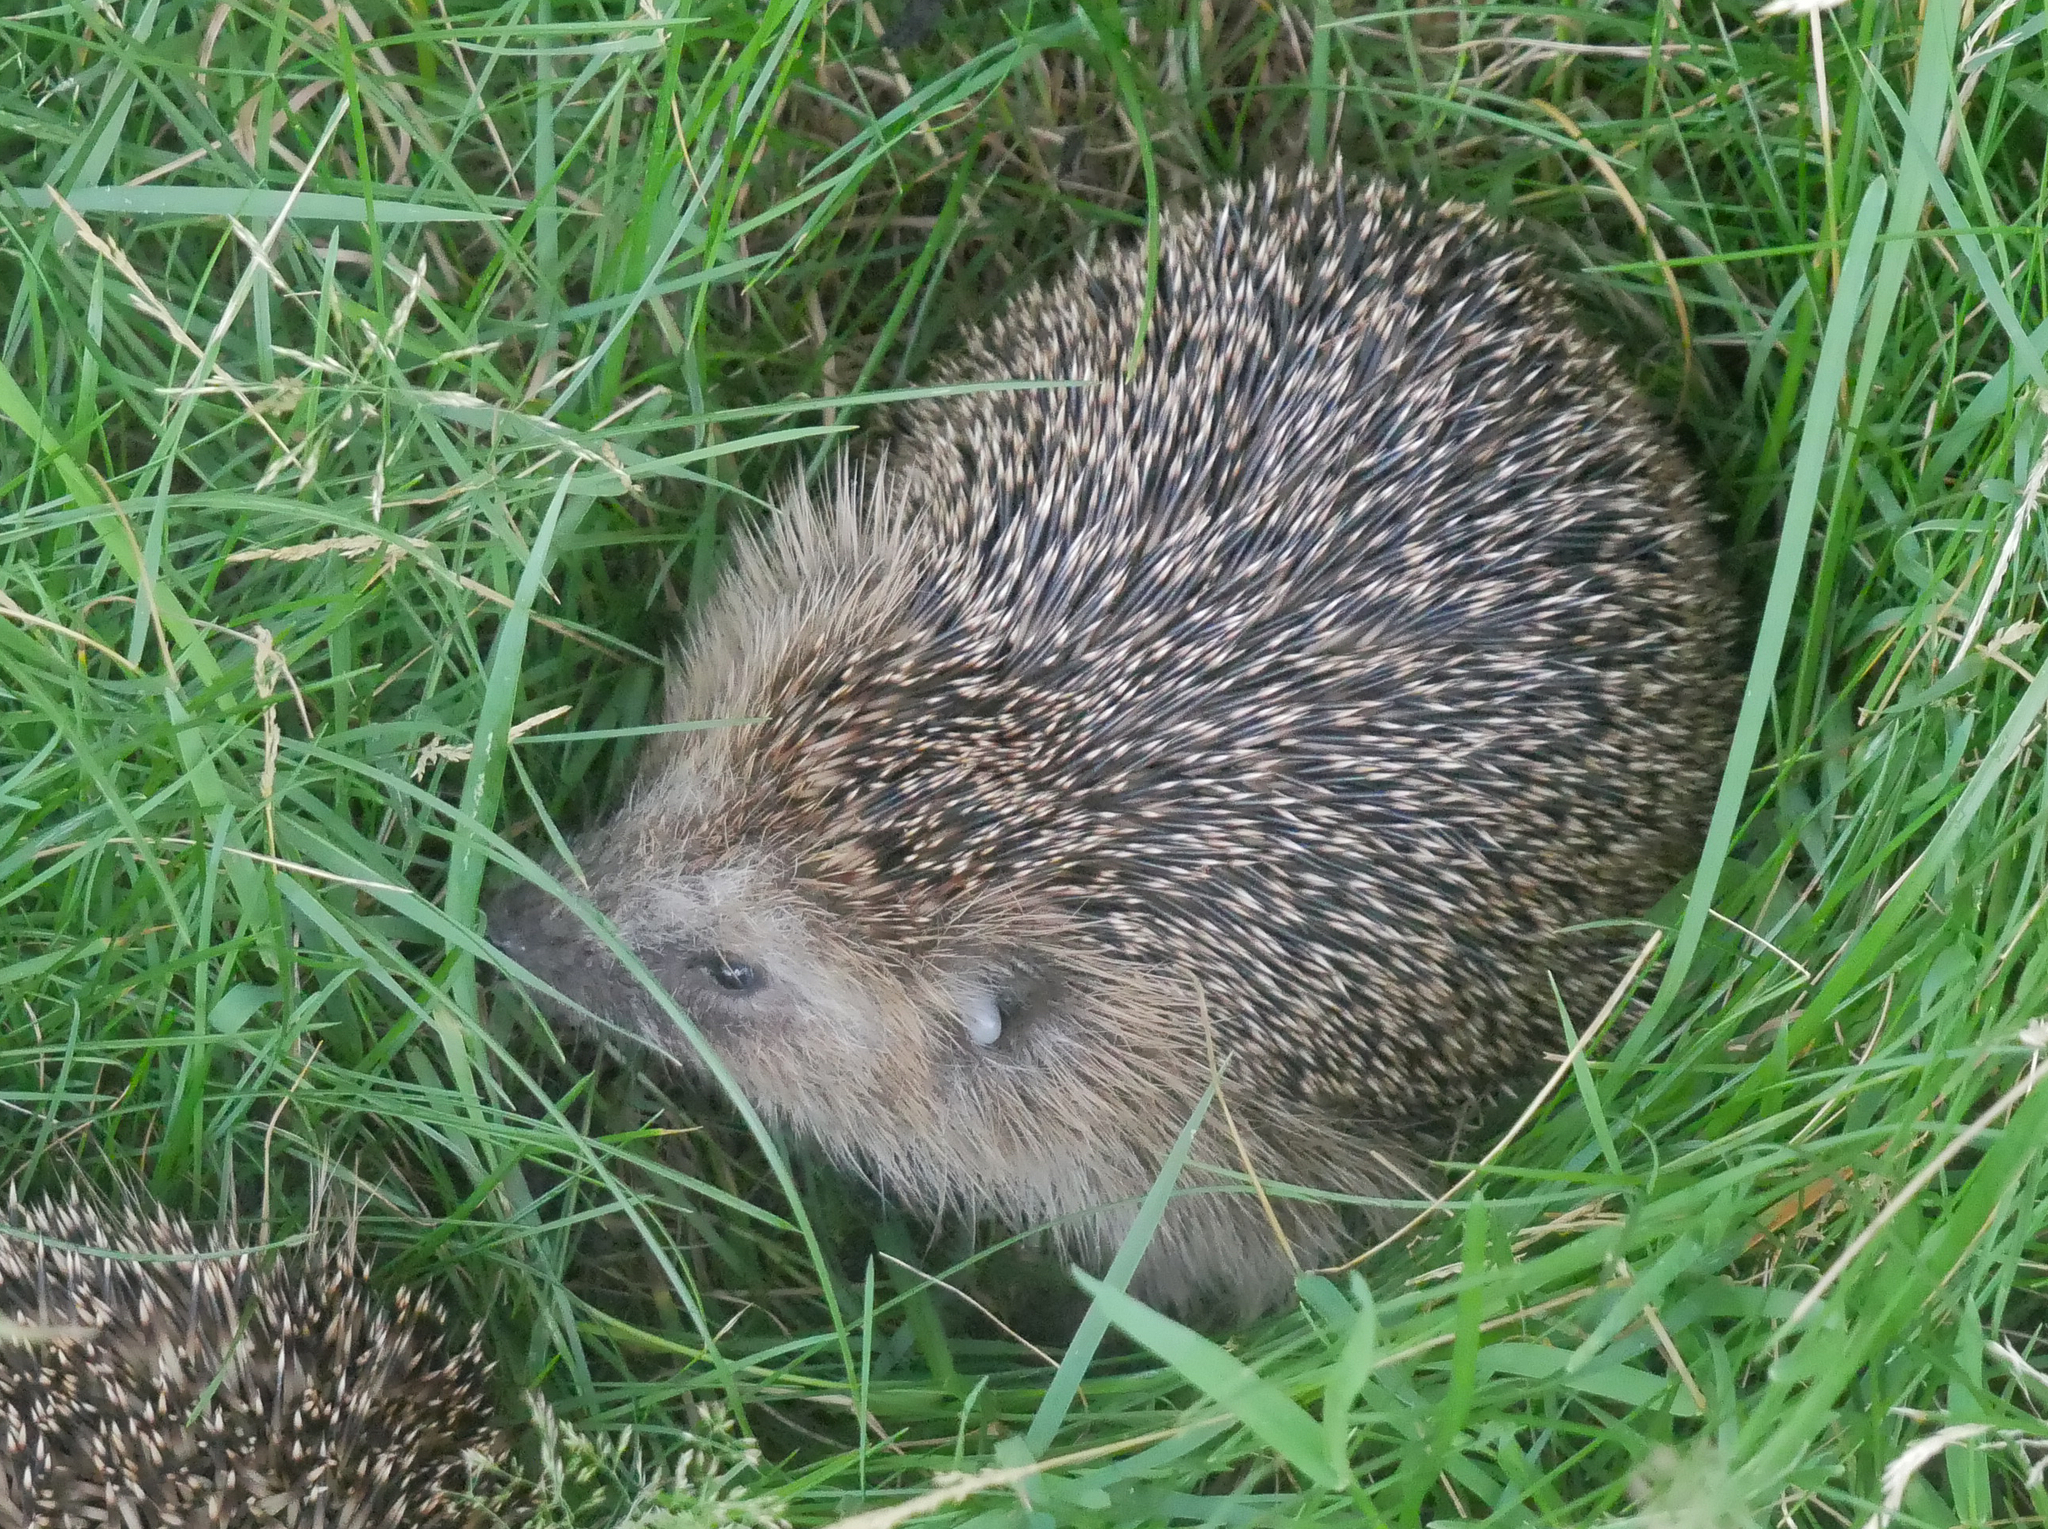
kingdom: Animalia
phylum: Chordata
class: Mammalia
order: Erinaceomorpha
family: Erinaceidae
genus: Erinaceus
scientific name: Erinaceus europaeus
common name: West european hedgehog
